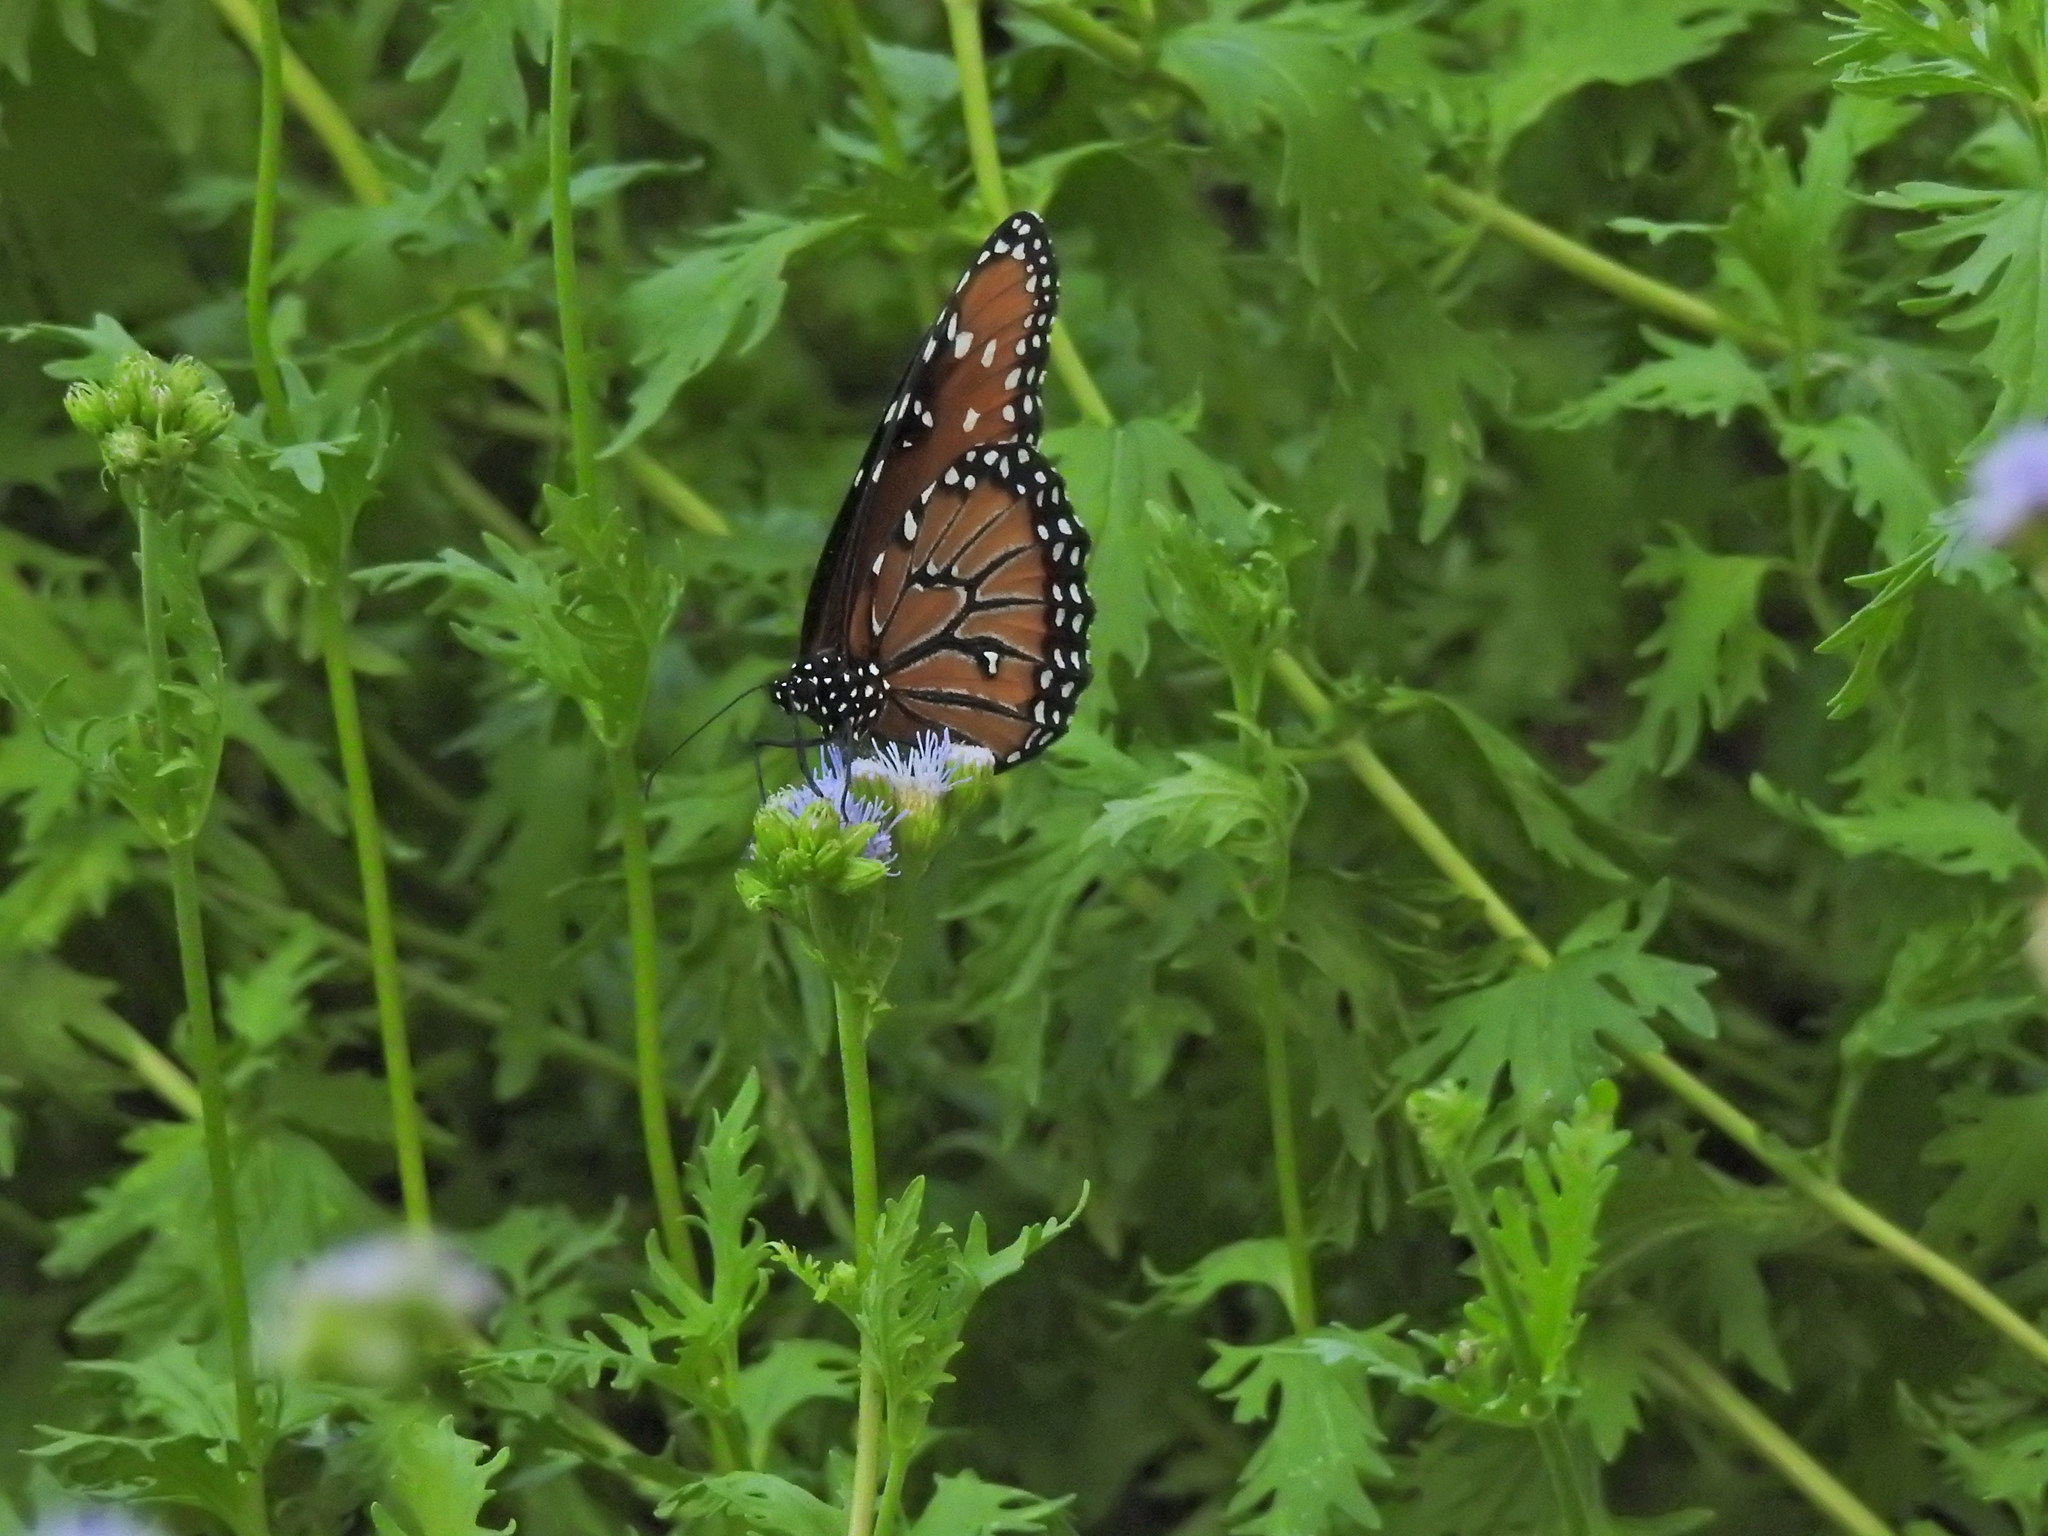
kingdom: Animalia
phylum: Arthropoda
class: Insecta
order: Lepidoptera
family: Nymphalidae
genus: Danaus
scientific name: Danaus gilippus
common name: Queen
